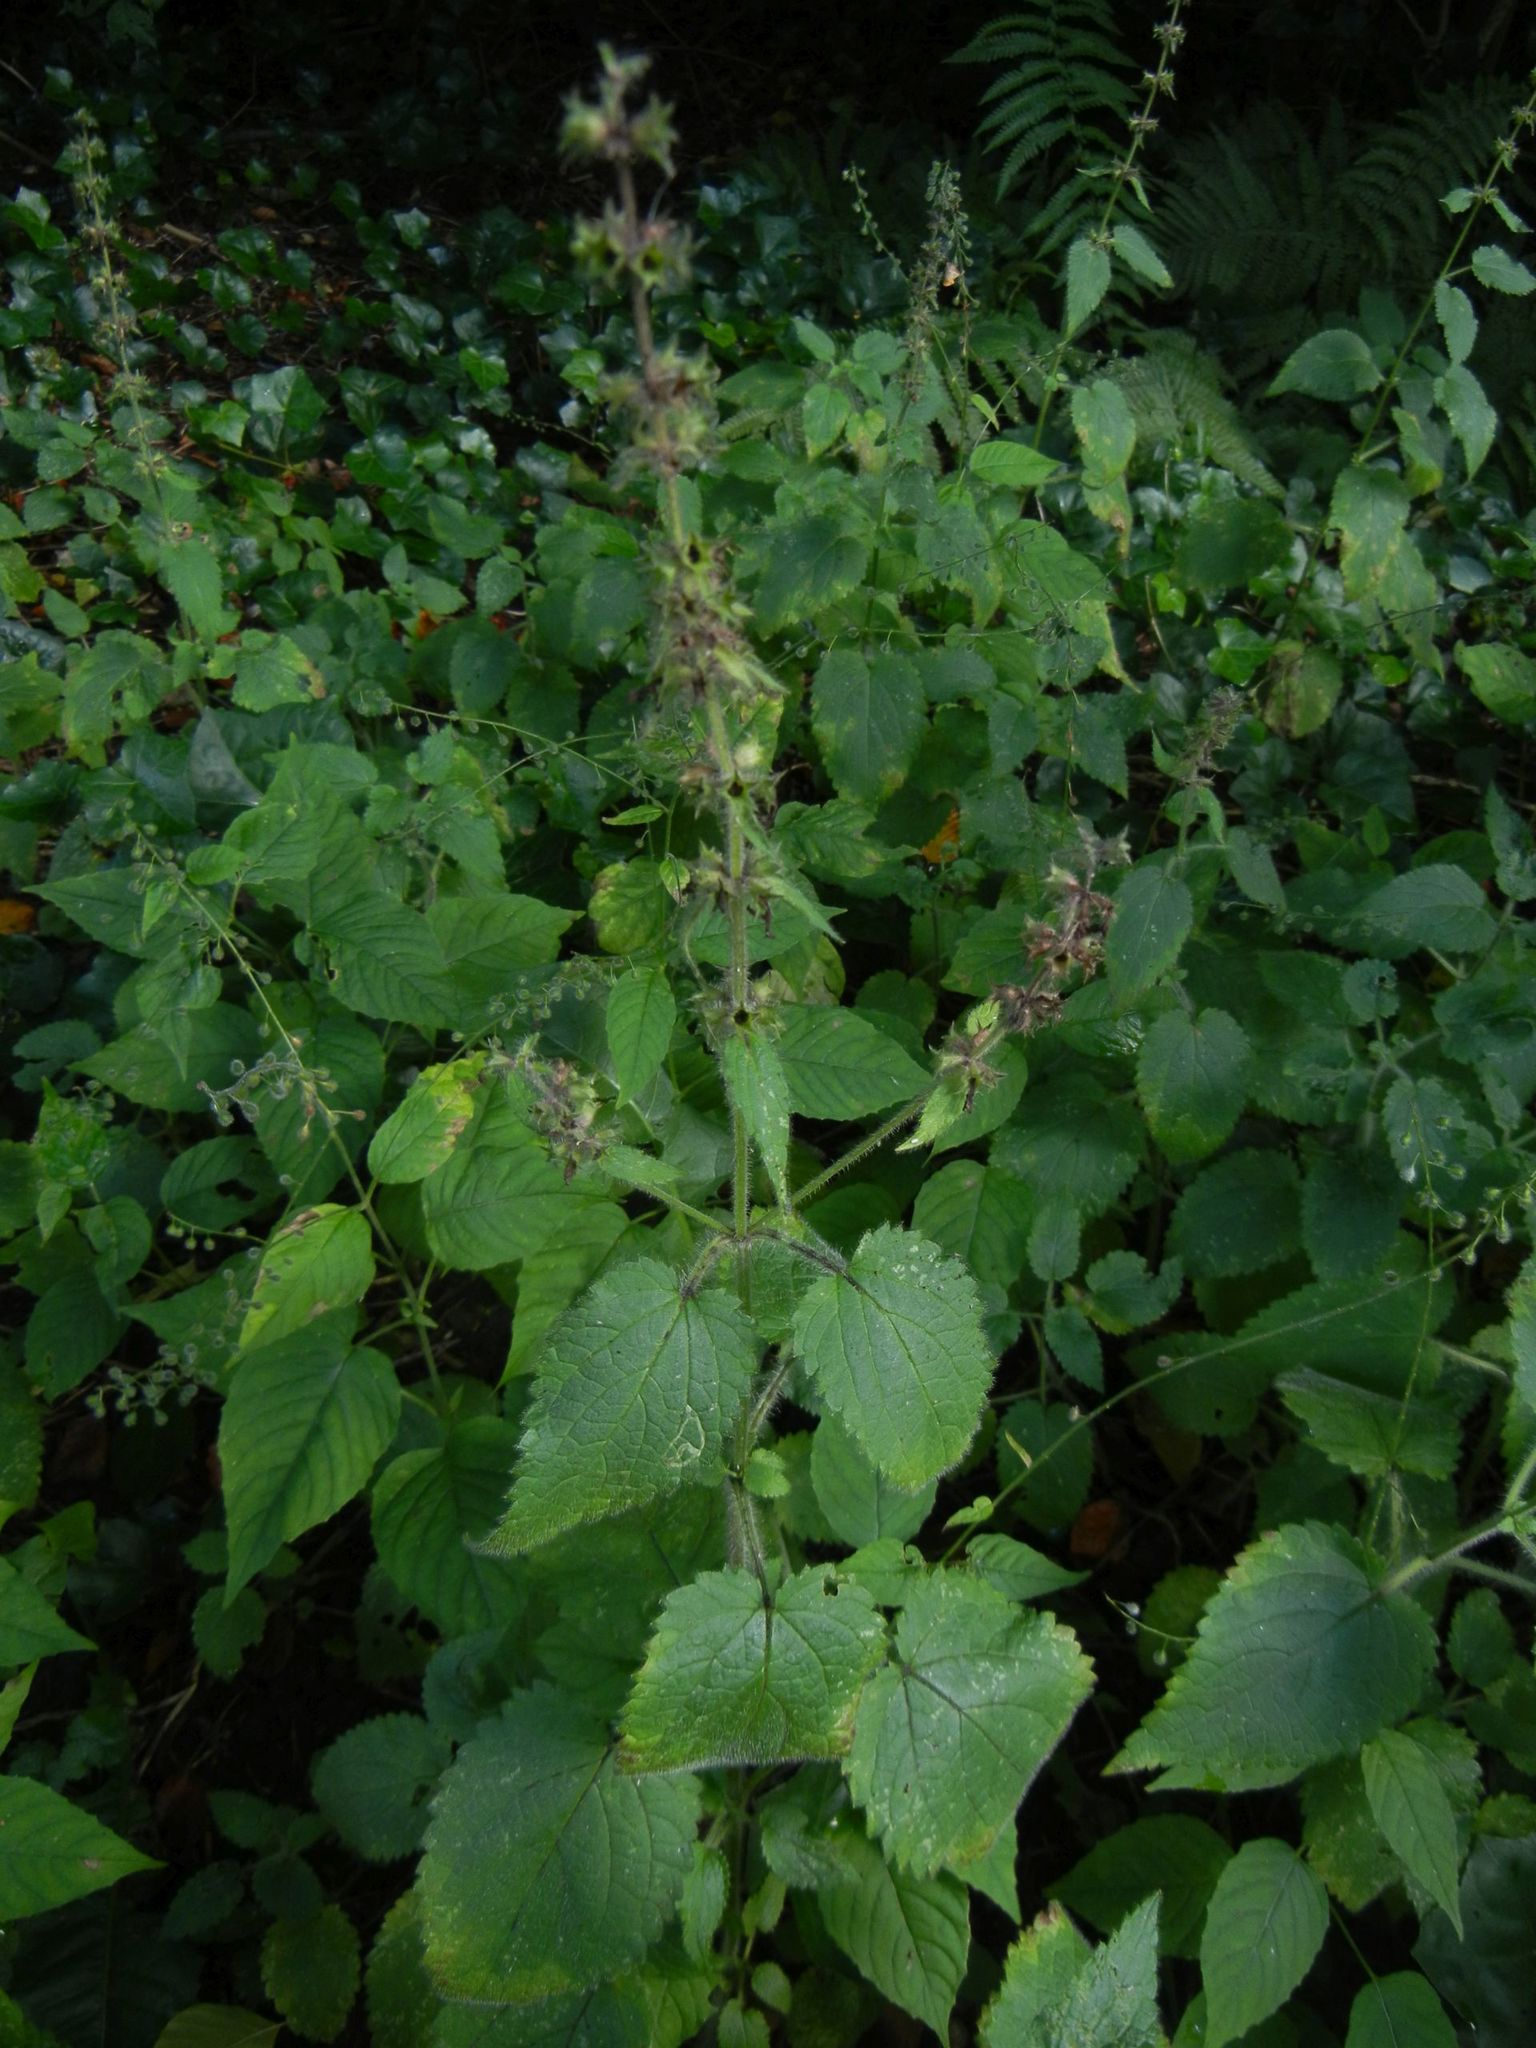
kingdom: Plantae
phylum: Tracheophyta
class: Magnoliopsida
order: Lamiales
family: Lamiaceae
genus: Stachys
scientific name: Stachys sylvatica
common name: Hedge woundwort
